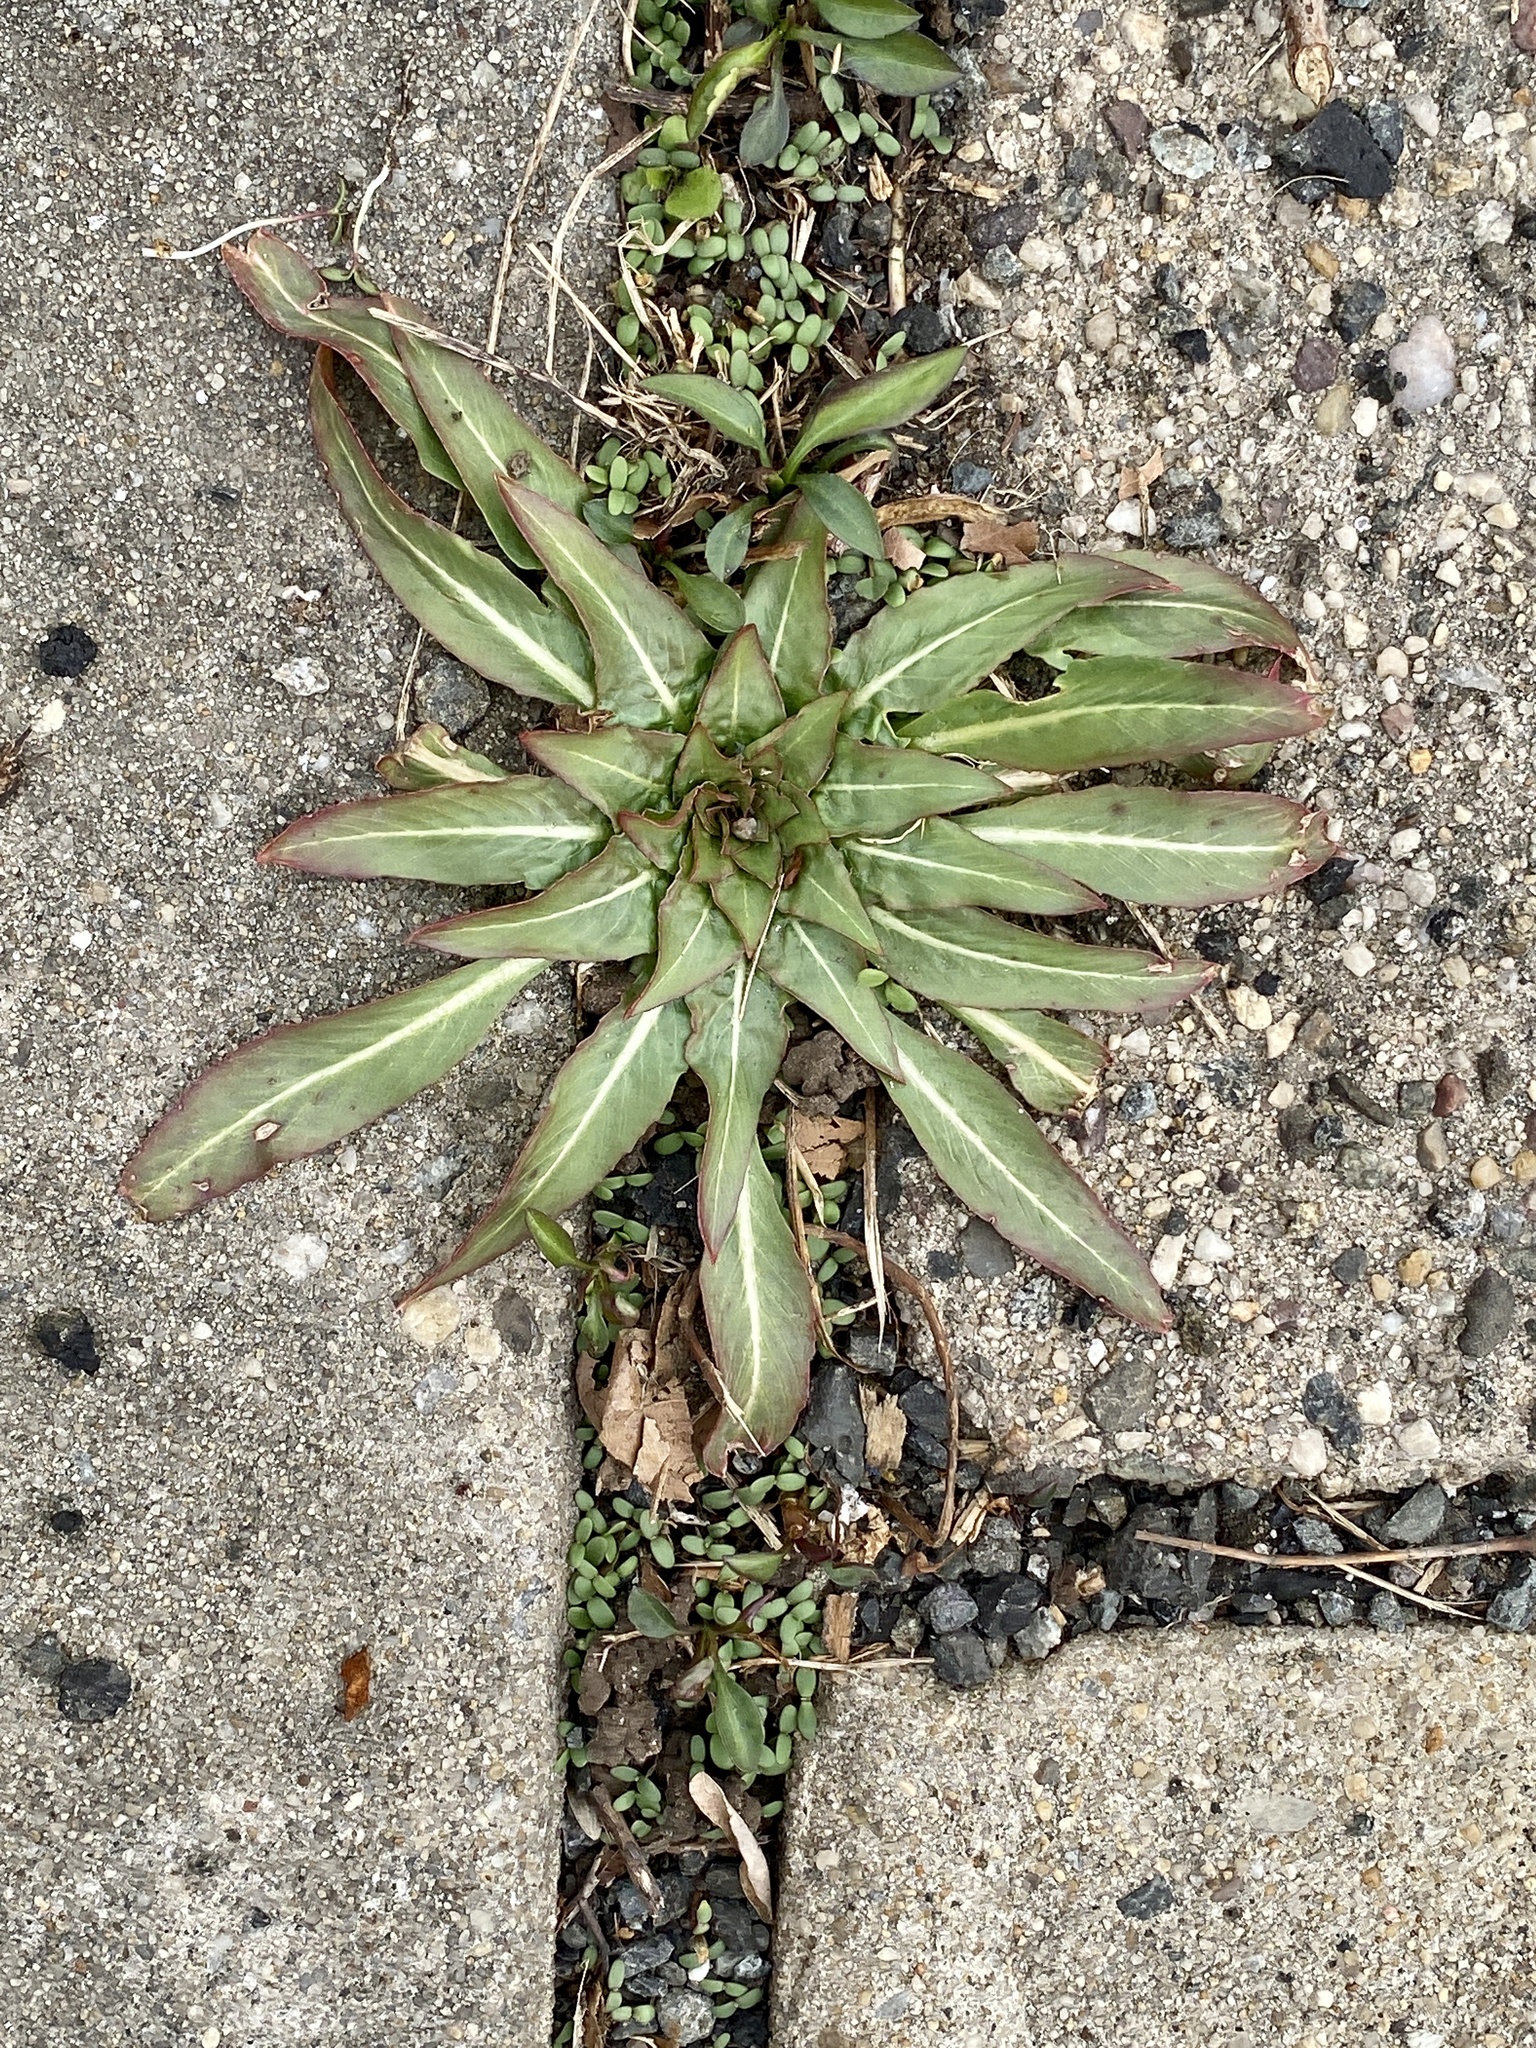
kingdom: Plantae
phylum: Tracheophyta
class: Magnoliopsida
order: Myrtales
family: Onagraceae
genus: Oenothera
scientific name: Oenothera biennis
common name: Common evening-primrose
